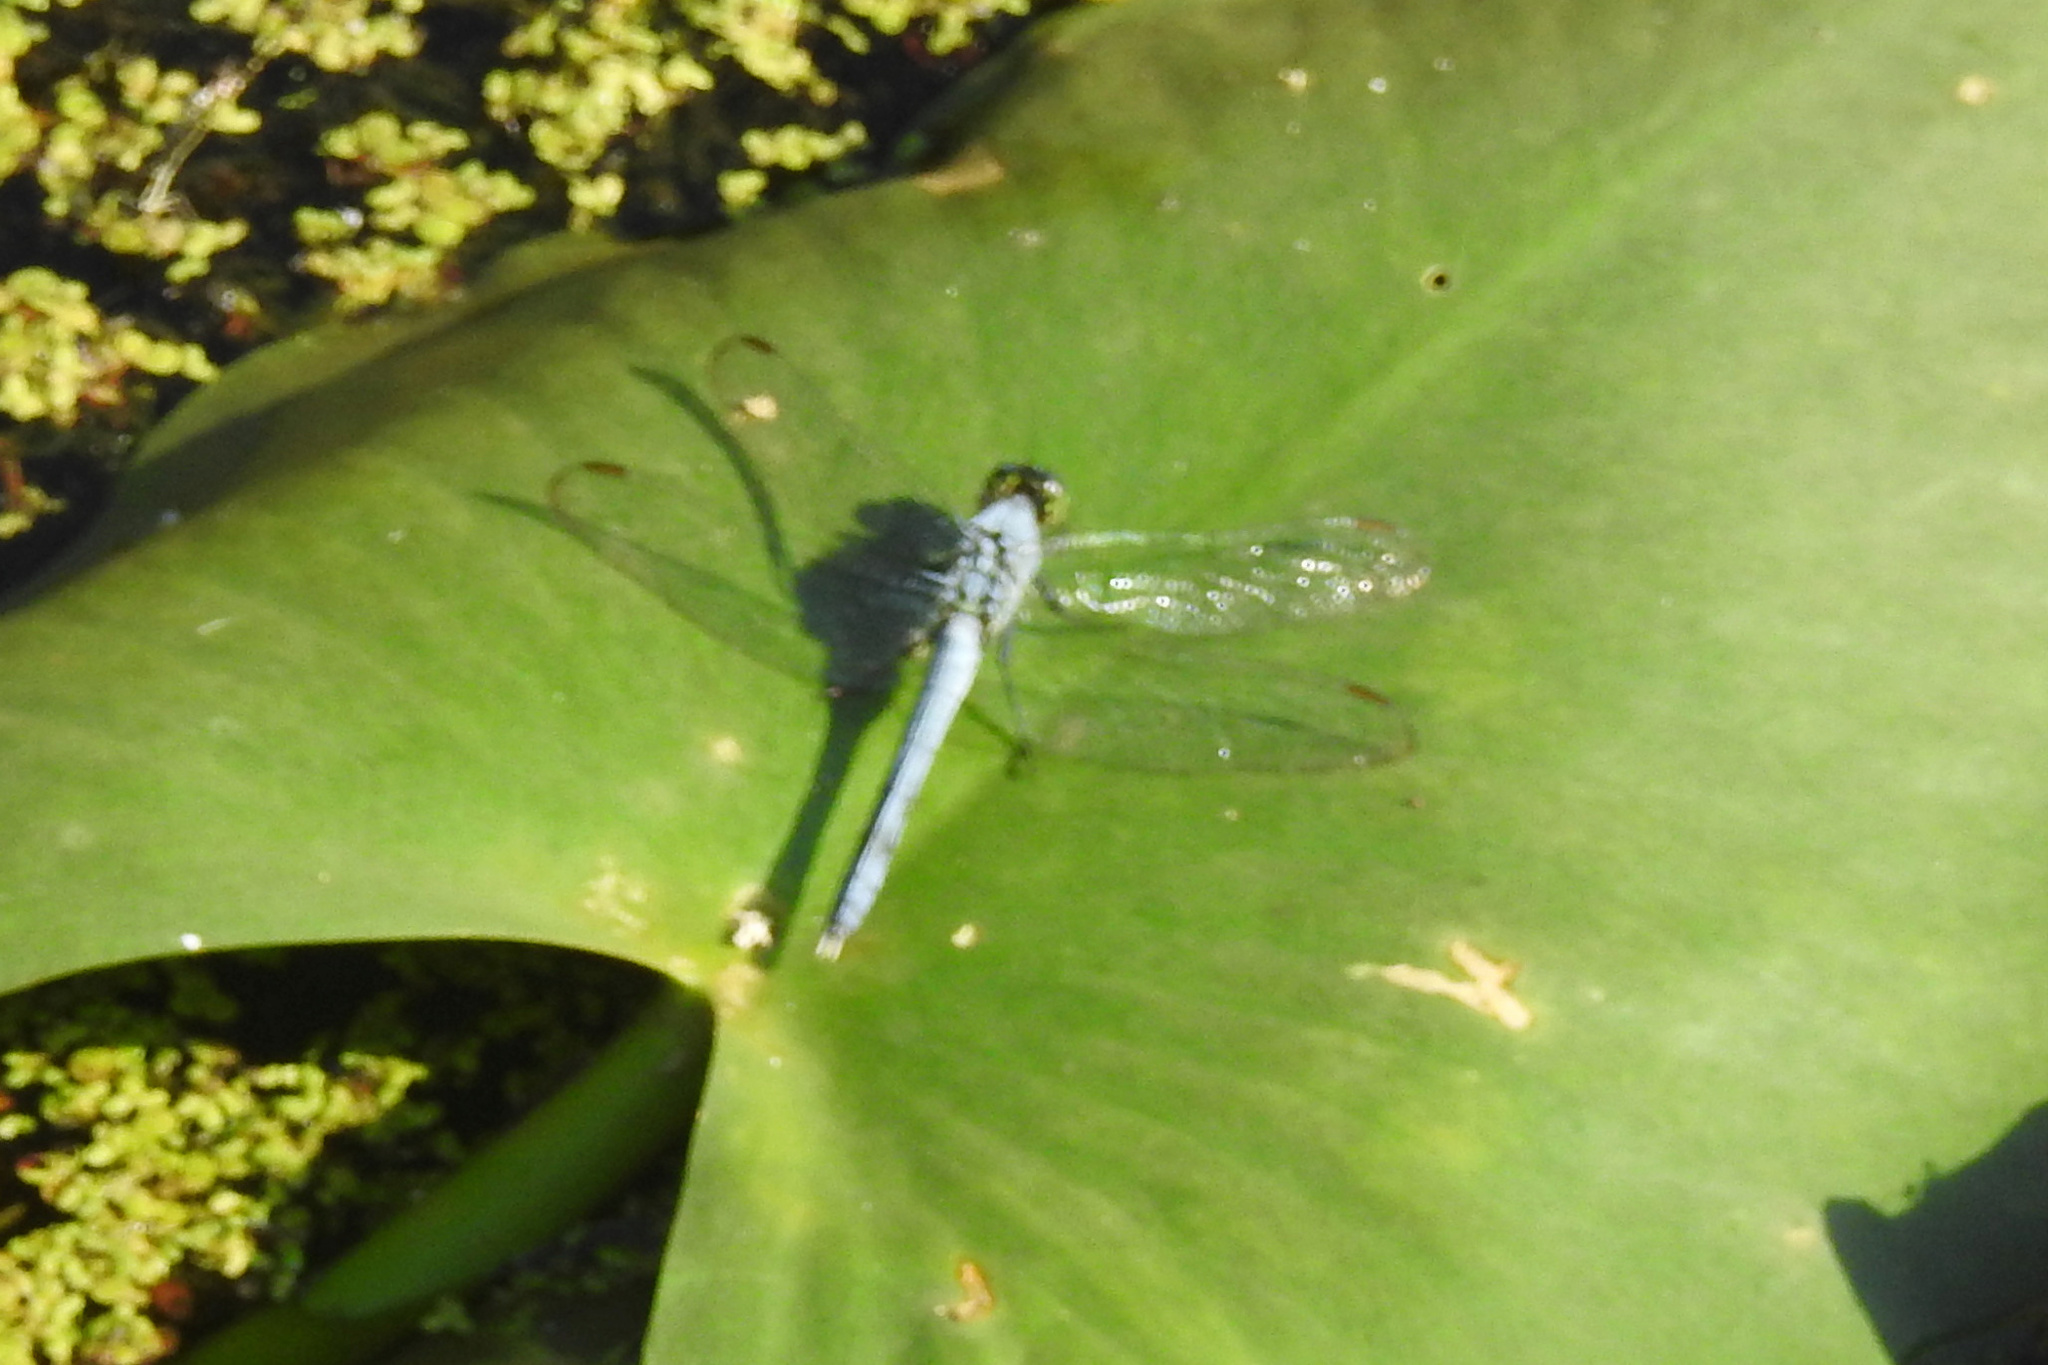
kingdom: Animalia
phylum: Arthropoda
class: Insecta
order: Odonata
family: Libellulidae
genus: Erythemis
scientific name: Erythemis simplicicollis
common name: Eastern pondhawk
